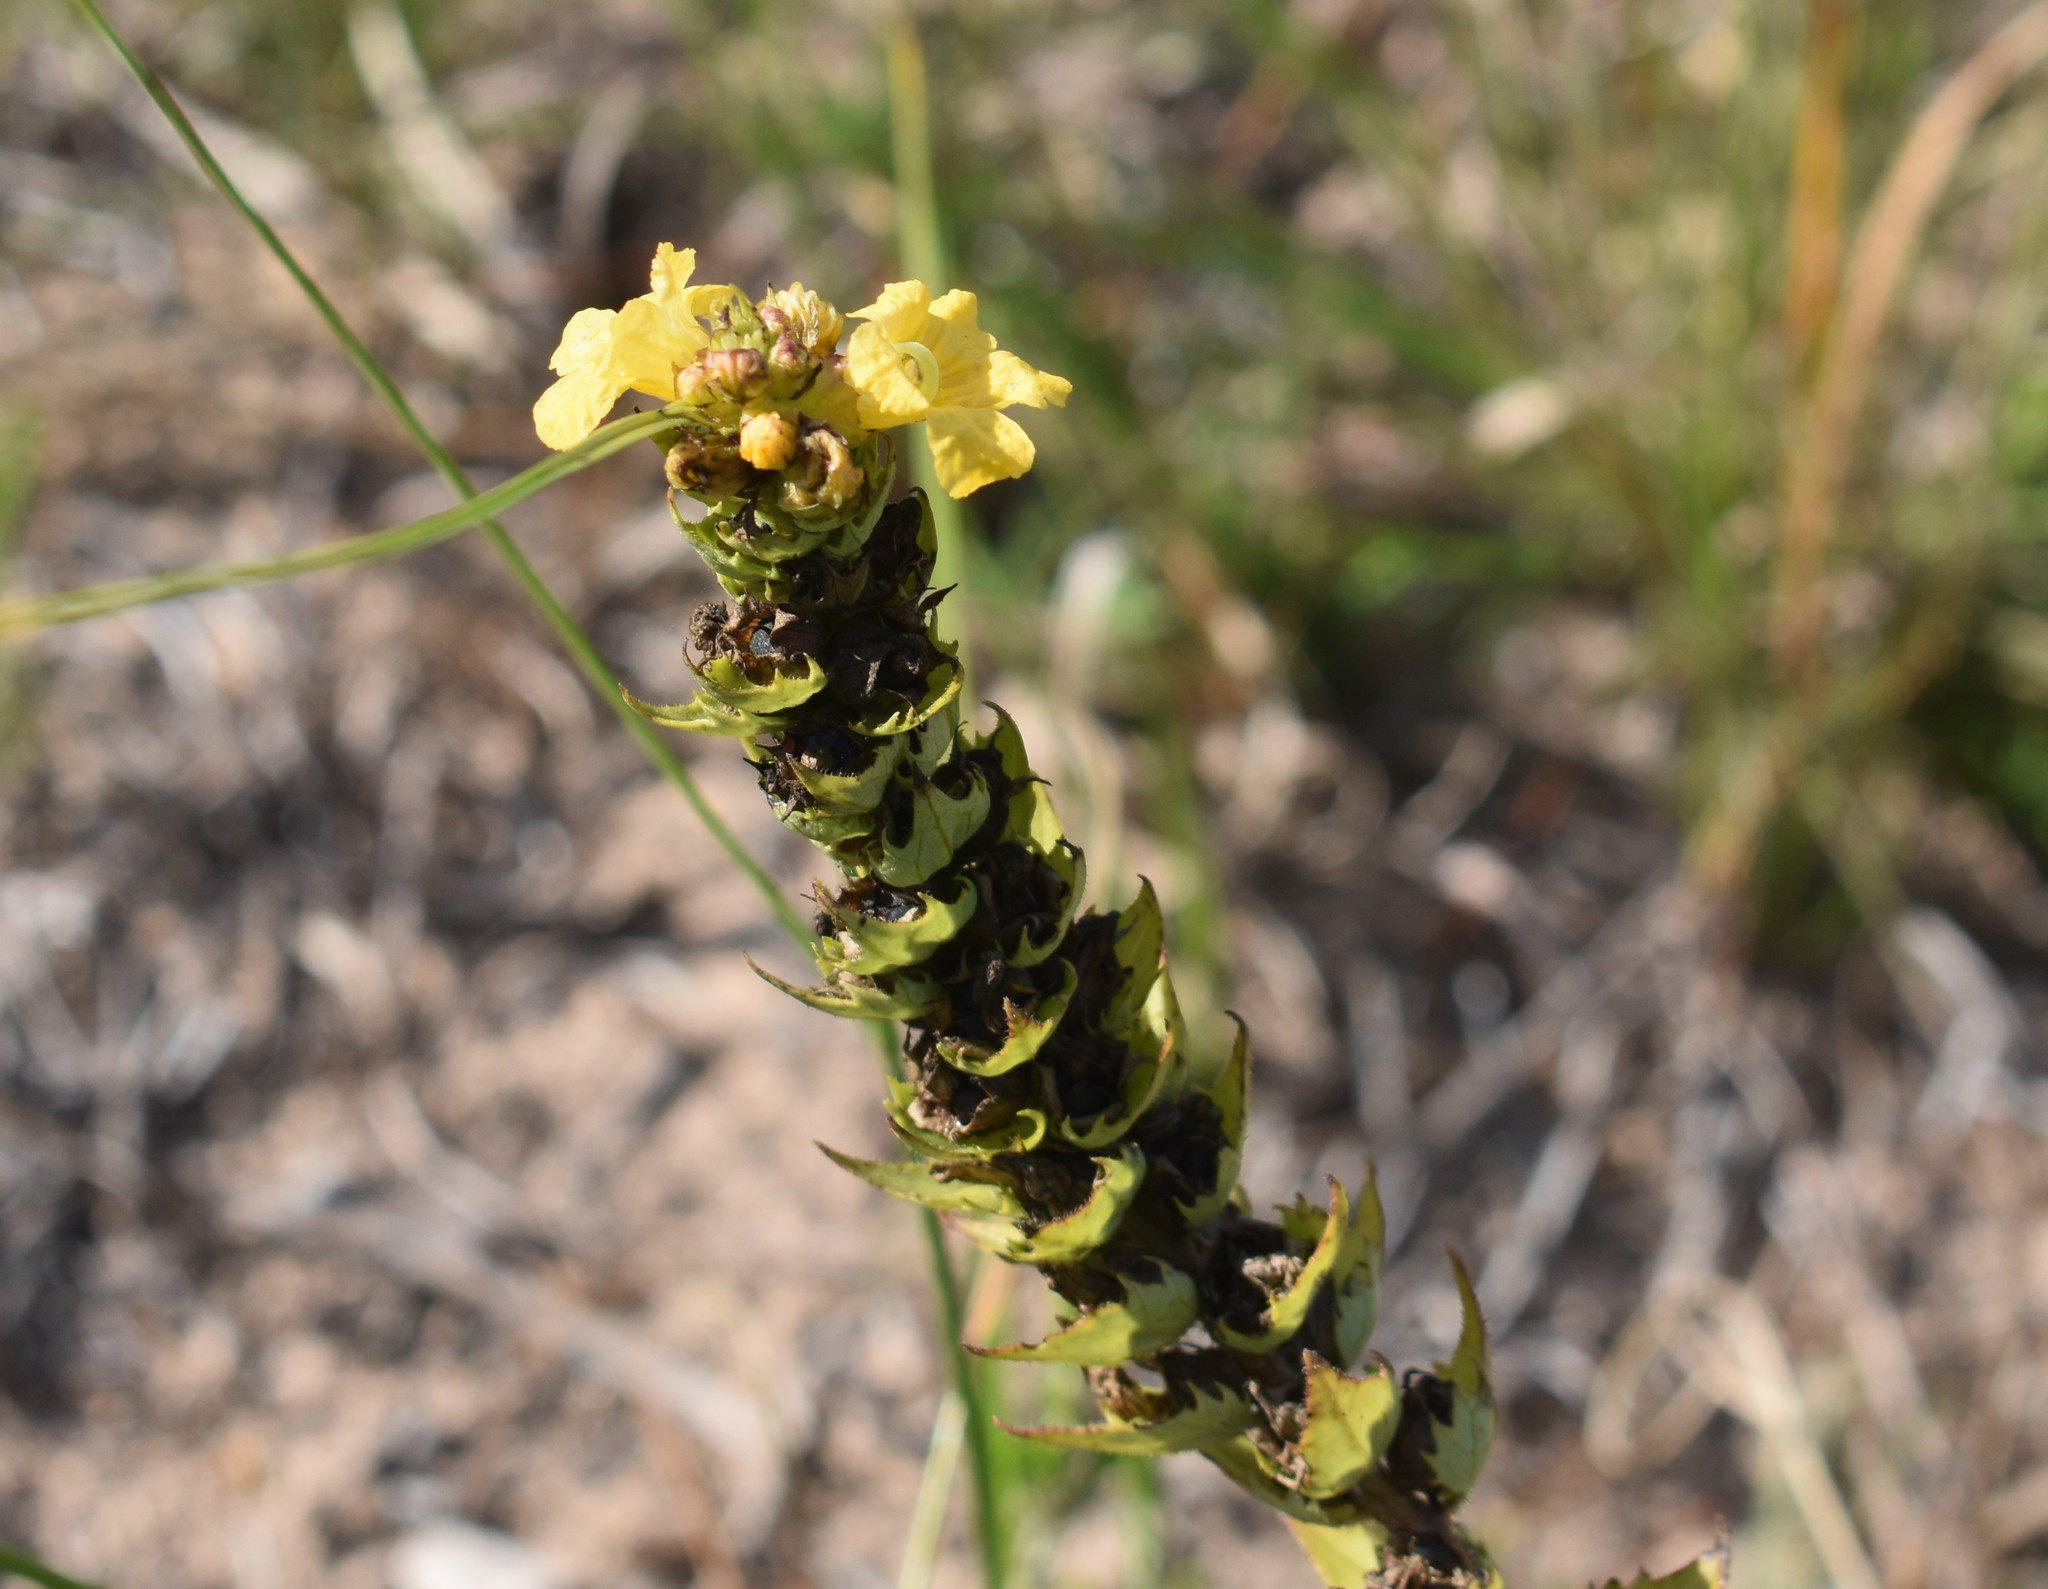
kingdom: Plantae
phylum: Tracheophyta
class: Magnoliopsida
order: Lamiales
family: Orobanchaceae
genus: Alectra
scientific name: Alectra sessiliflora
